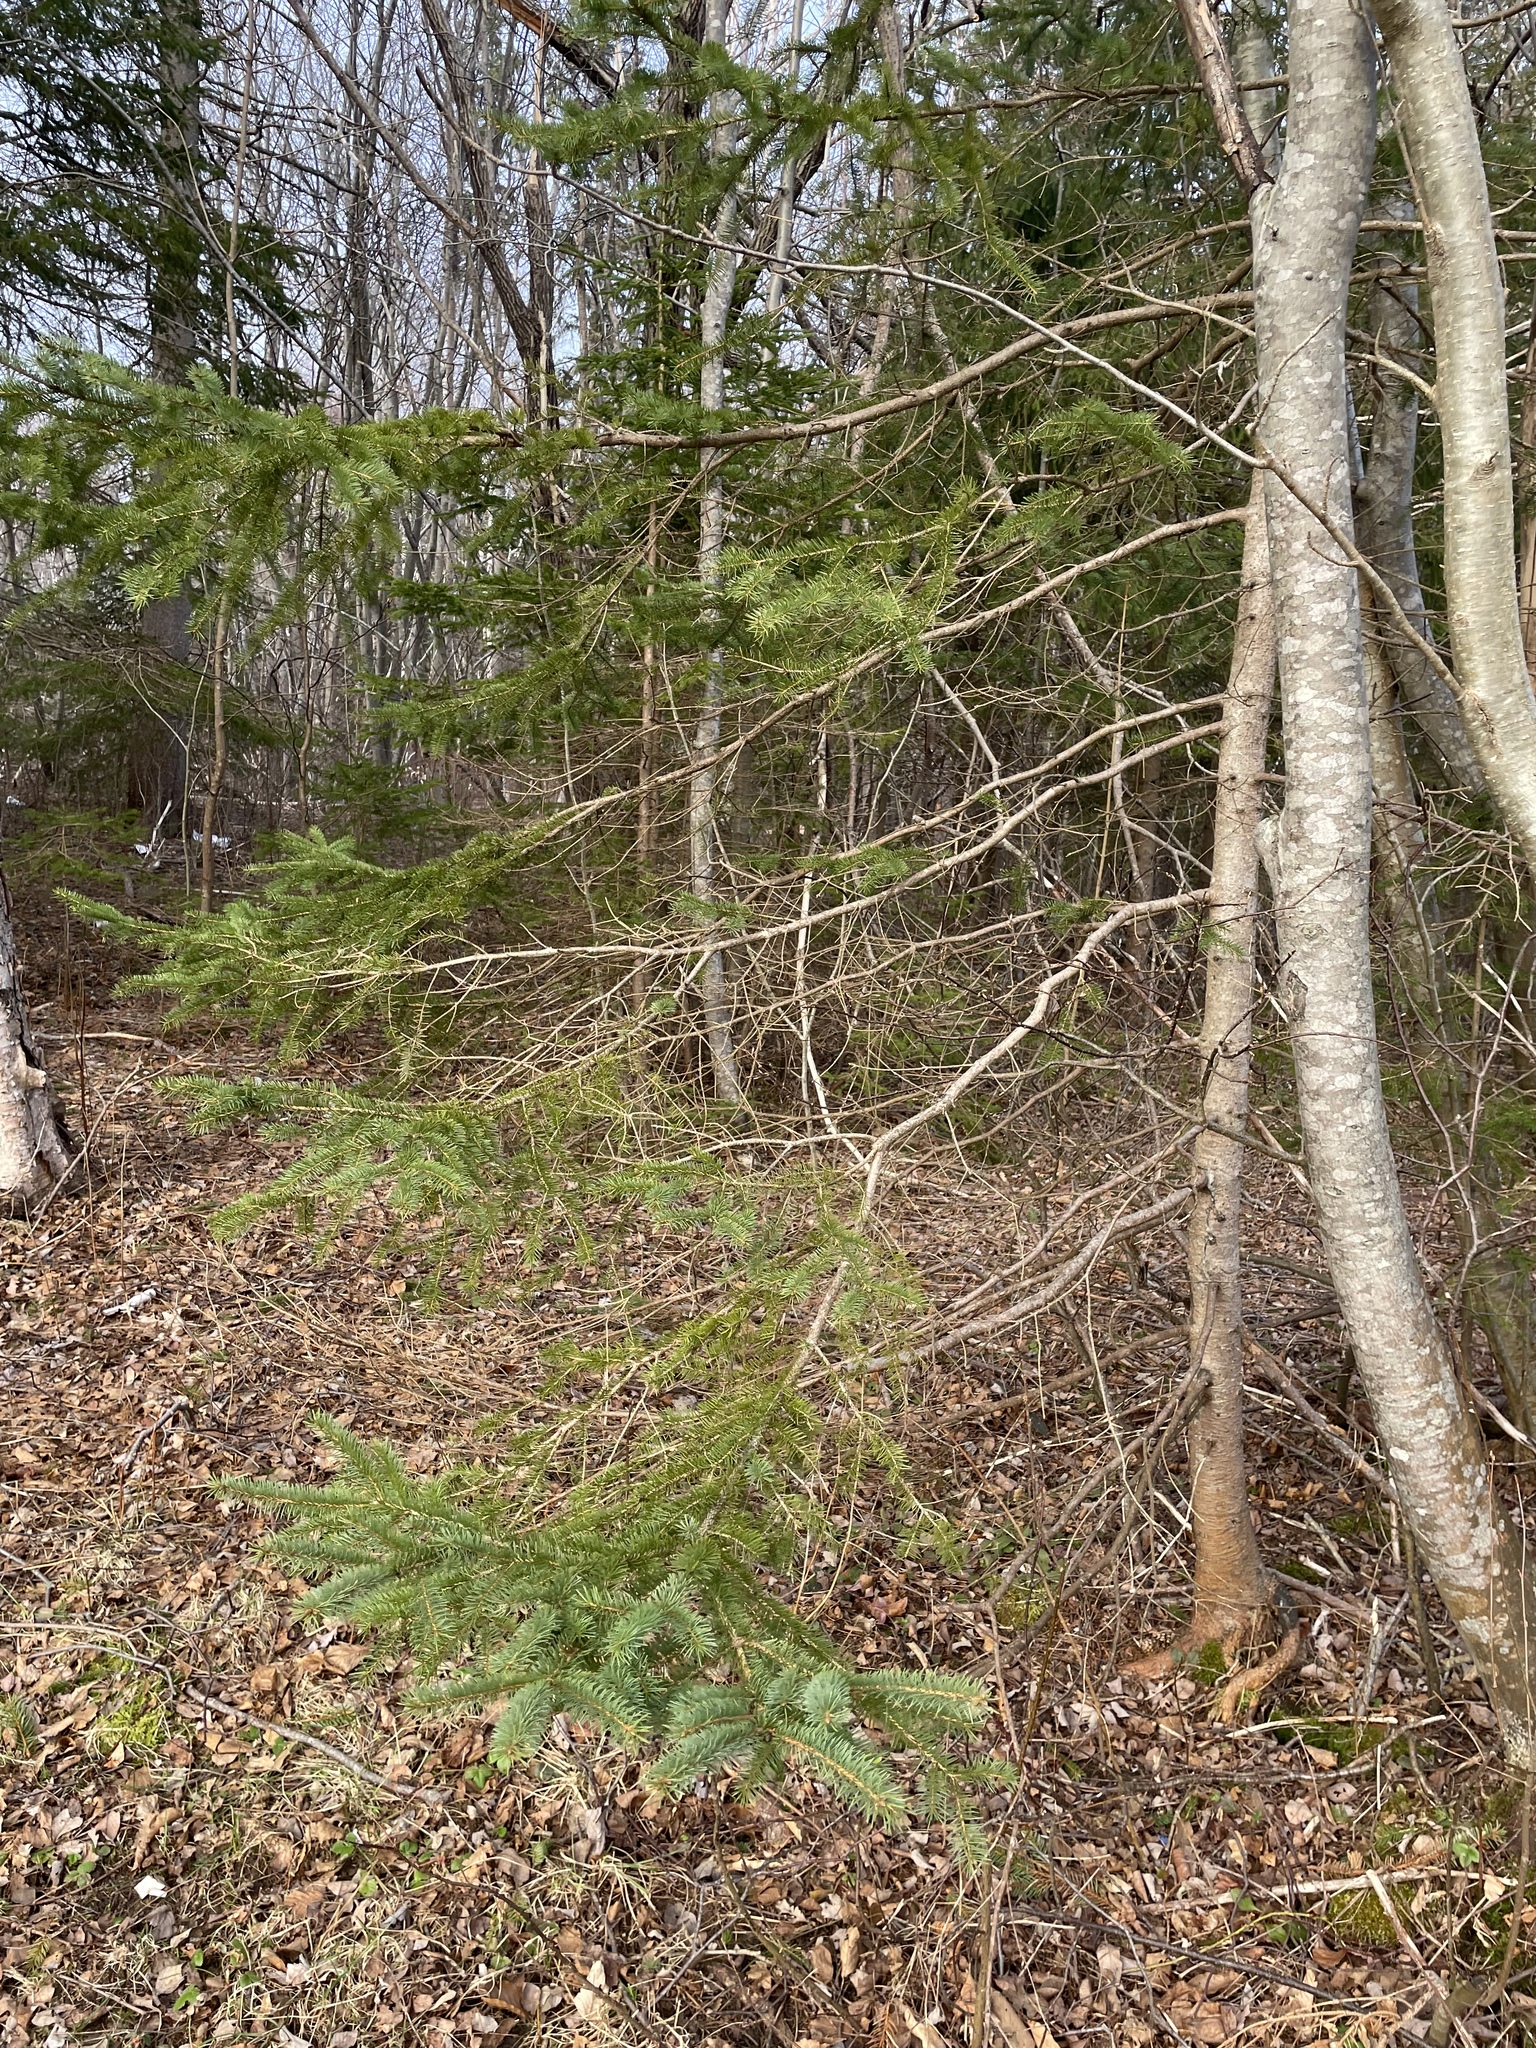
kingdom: Plantae
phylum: Tracheophyta
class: Pinopsida
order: Pinales
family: Pinaceae
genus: Picea
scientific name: Picea glauca
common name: White spruce
